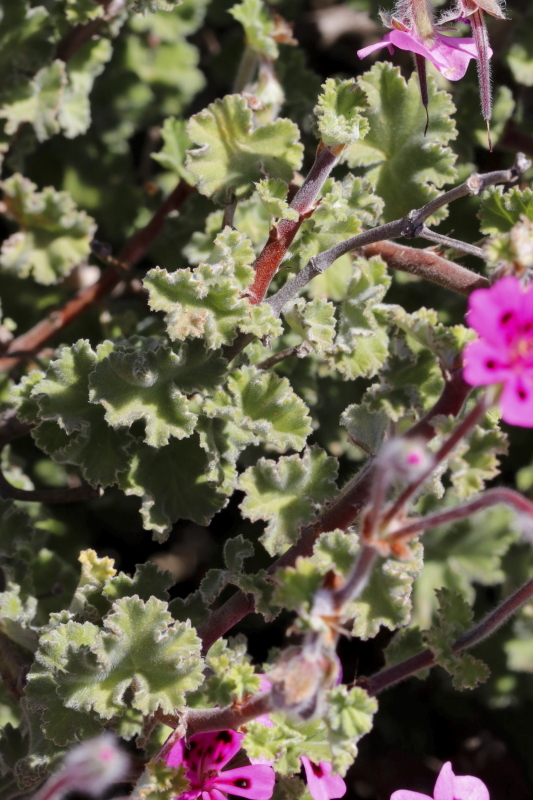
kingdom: Plantae
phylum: Tracheophyta
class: Magnoliopsida
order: Geraniales
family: Geraniaceae
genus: Pelargonium
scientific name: Pelargonium magenteum
